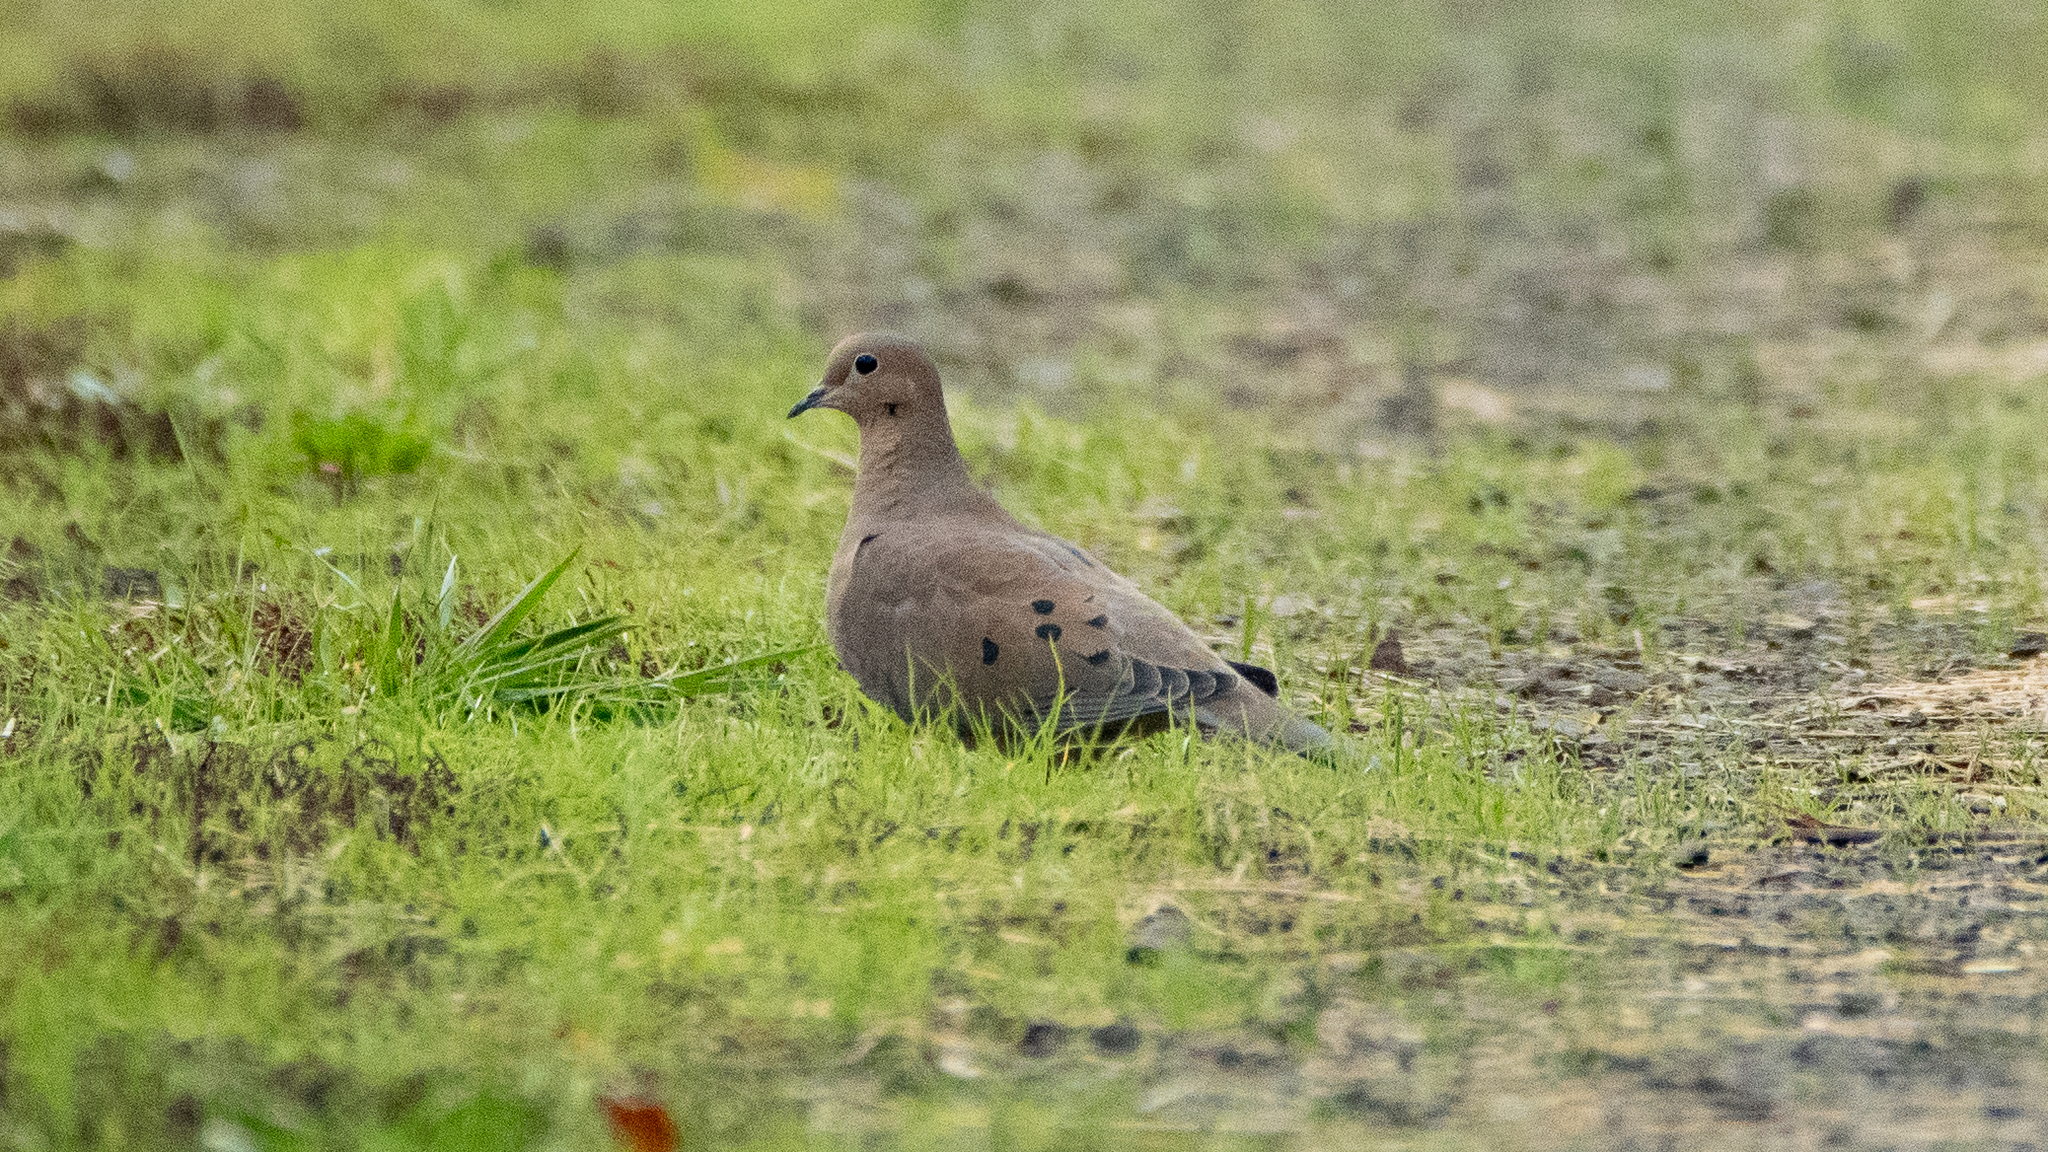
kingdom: Animalia
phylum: Chordata
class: Aves
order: Columbiformes
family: Columbidae
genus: Zenaida
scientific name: Zenaida macroura
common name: Mourning dove
